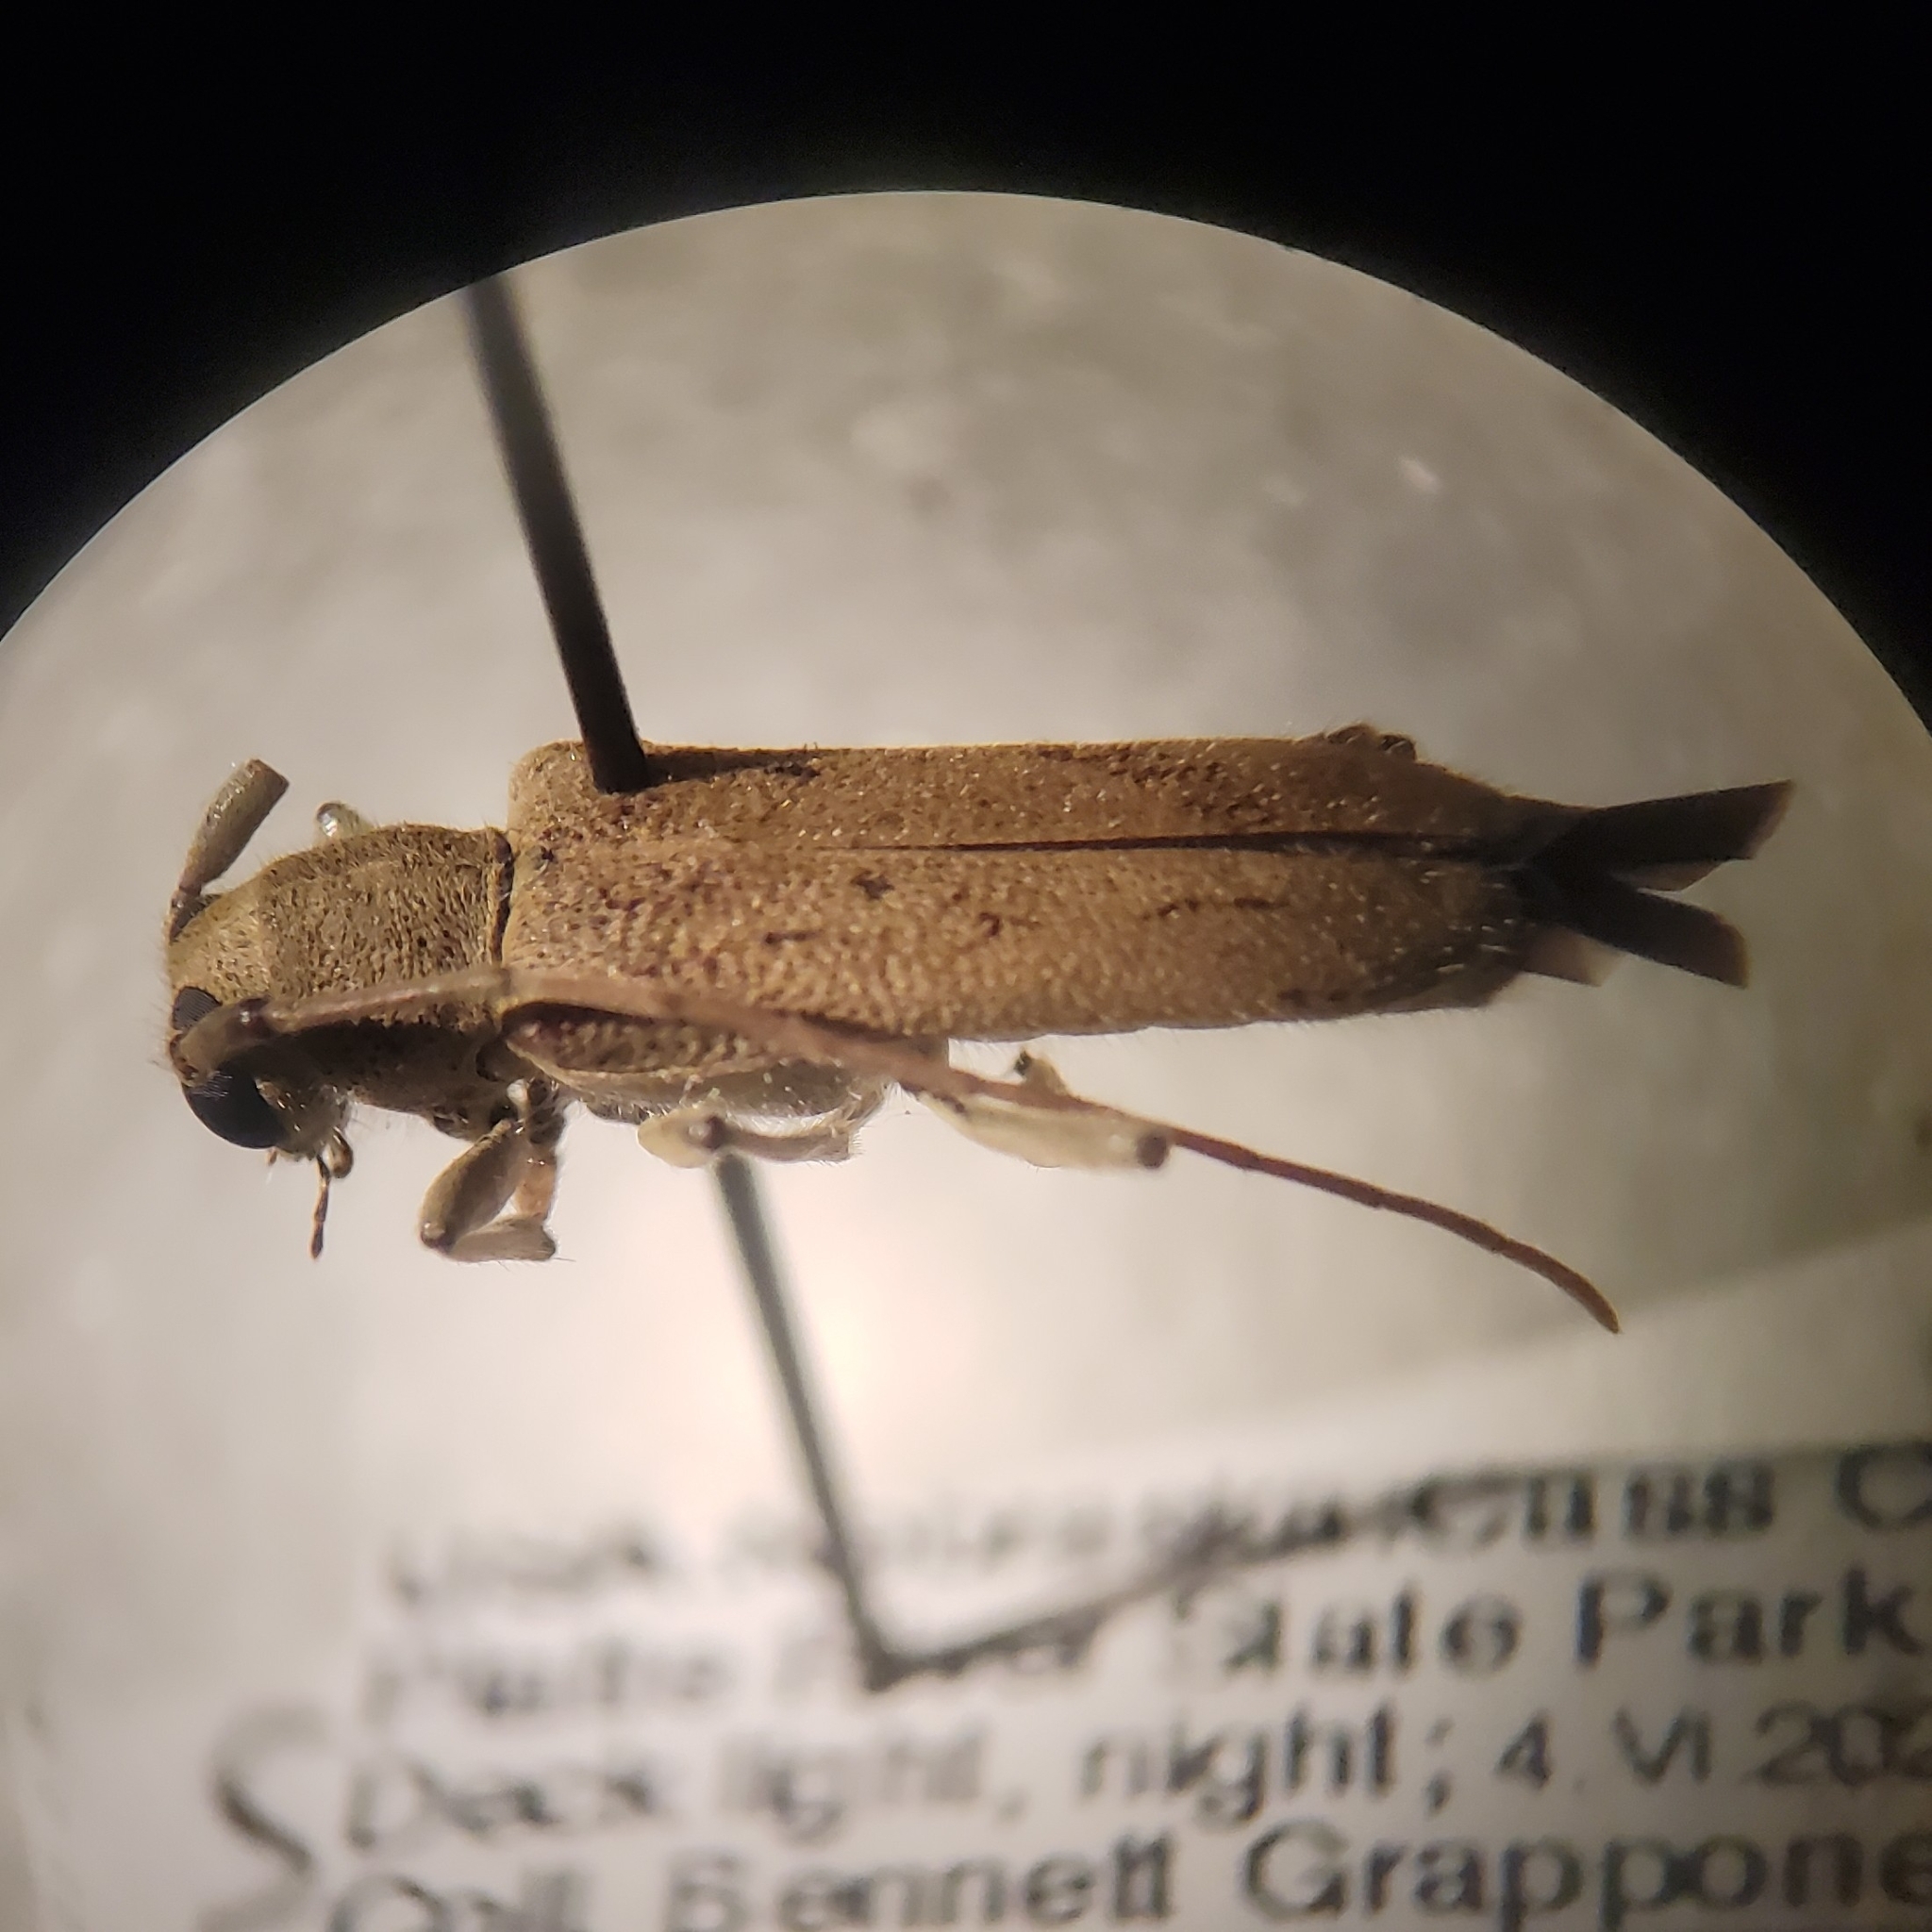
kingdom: Animalia
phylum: Arthropoda
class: Insecta
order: Coleoptera
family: Cerambycidae
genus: Saperda
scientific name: Saperda vestita
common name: Linden borer
